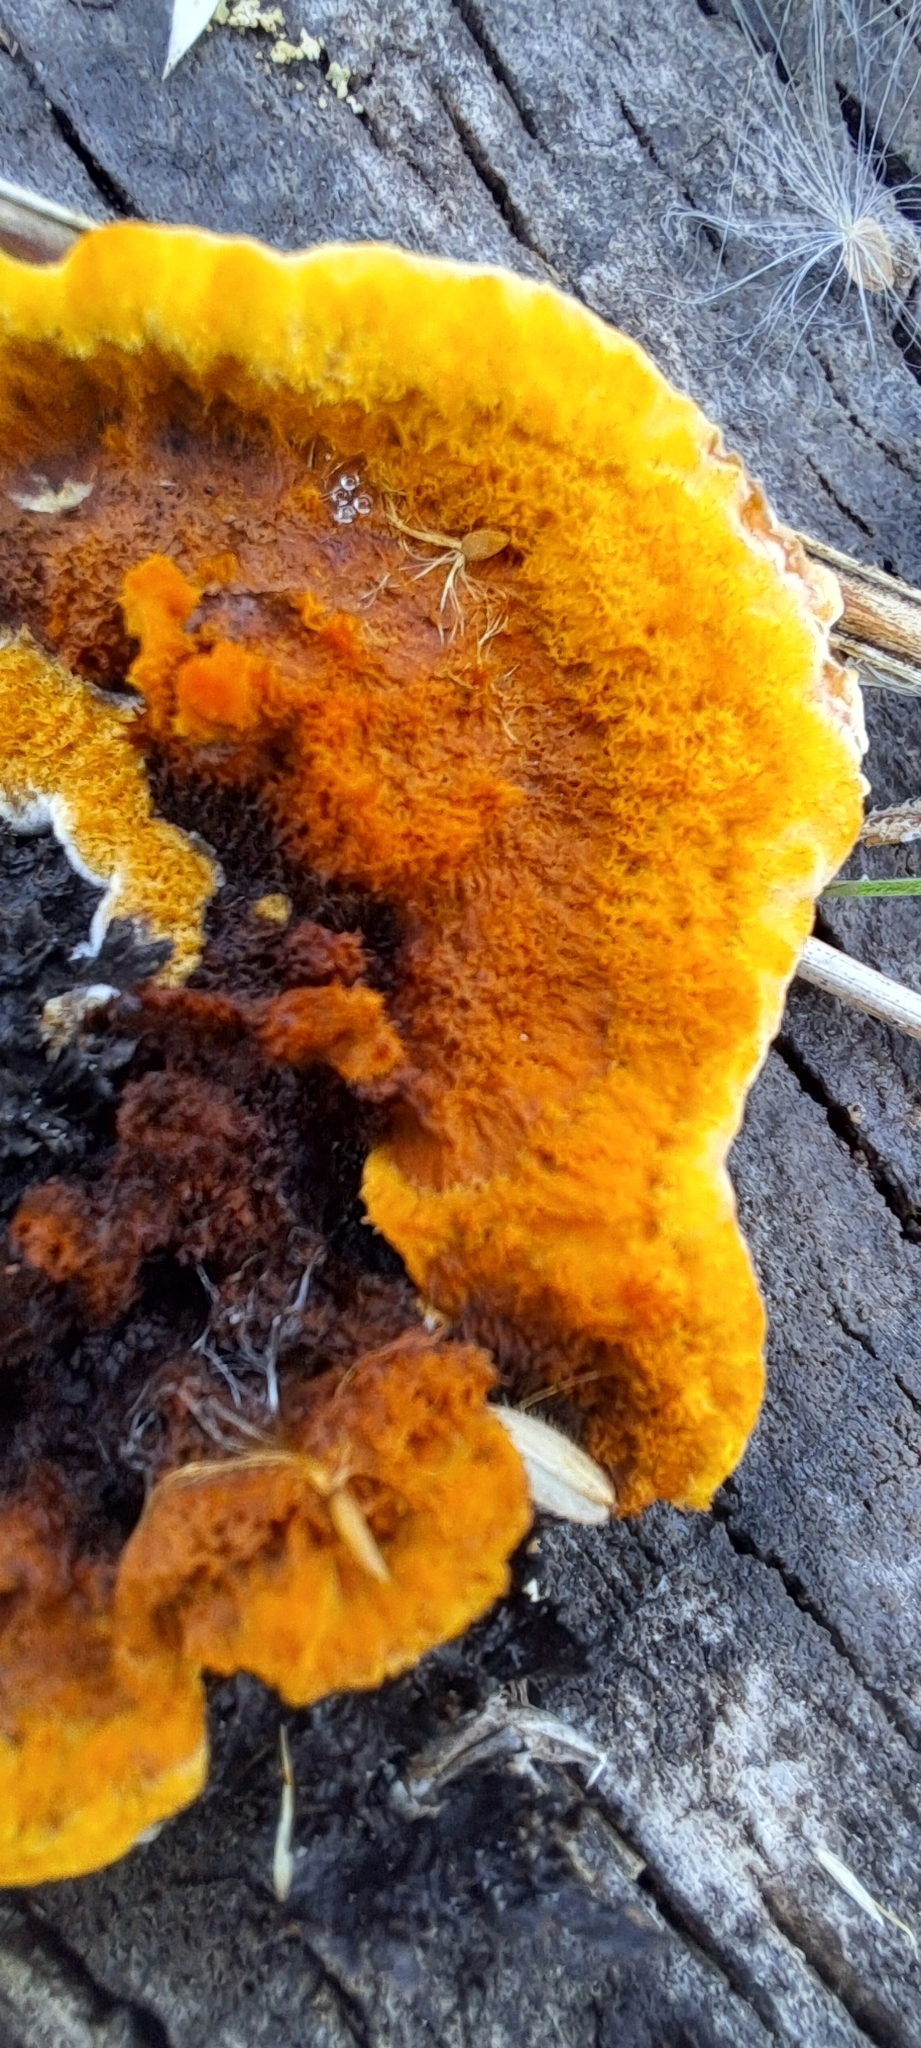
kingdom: Fungi
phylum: Basidiomycota
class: Agaricomycetes
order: Gloeophyllales
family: Gloeophyllaceae
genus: Gloeophyllum
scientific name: Gloeophyllum sepiarium
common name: Conifer mazegill
